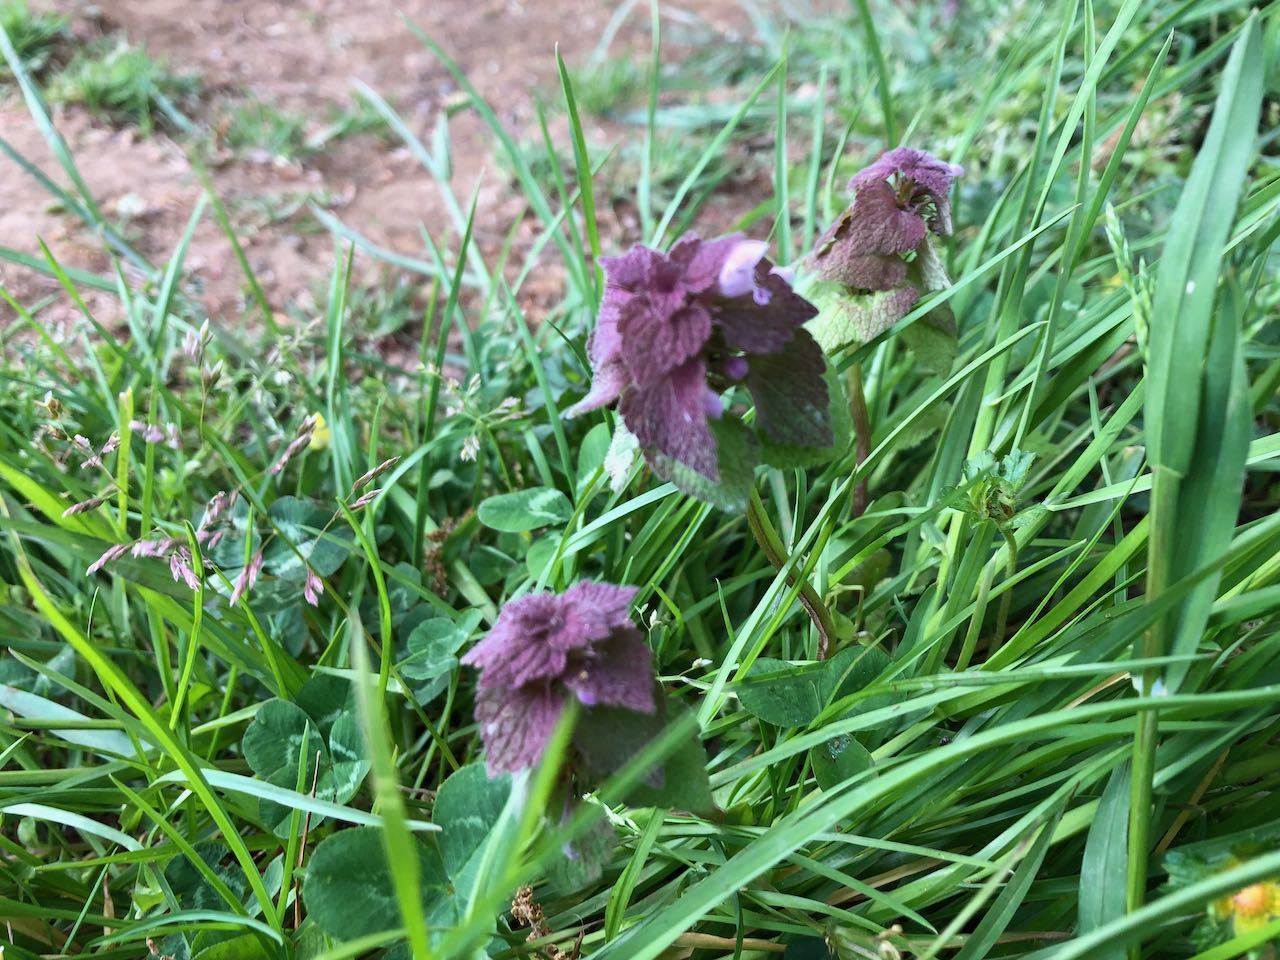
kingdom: Plantae
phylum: Tracheophyta
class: Magnoliopsida
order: Lamiales
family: Lamiaceae
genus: Lamium
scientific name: Lamium purpureum
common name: Red dead-nettle
